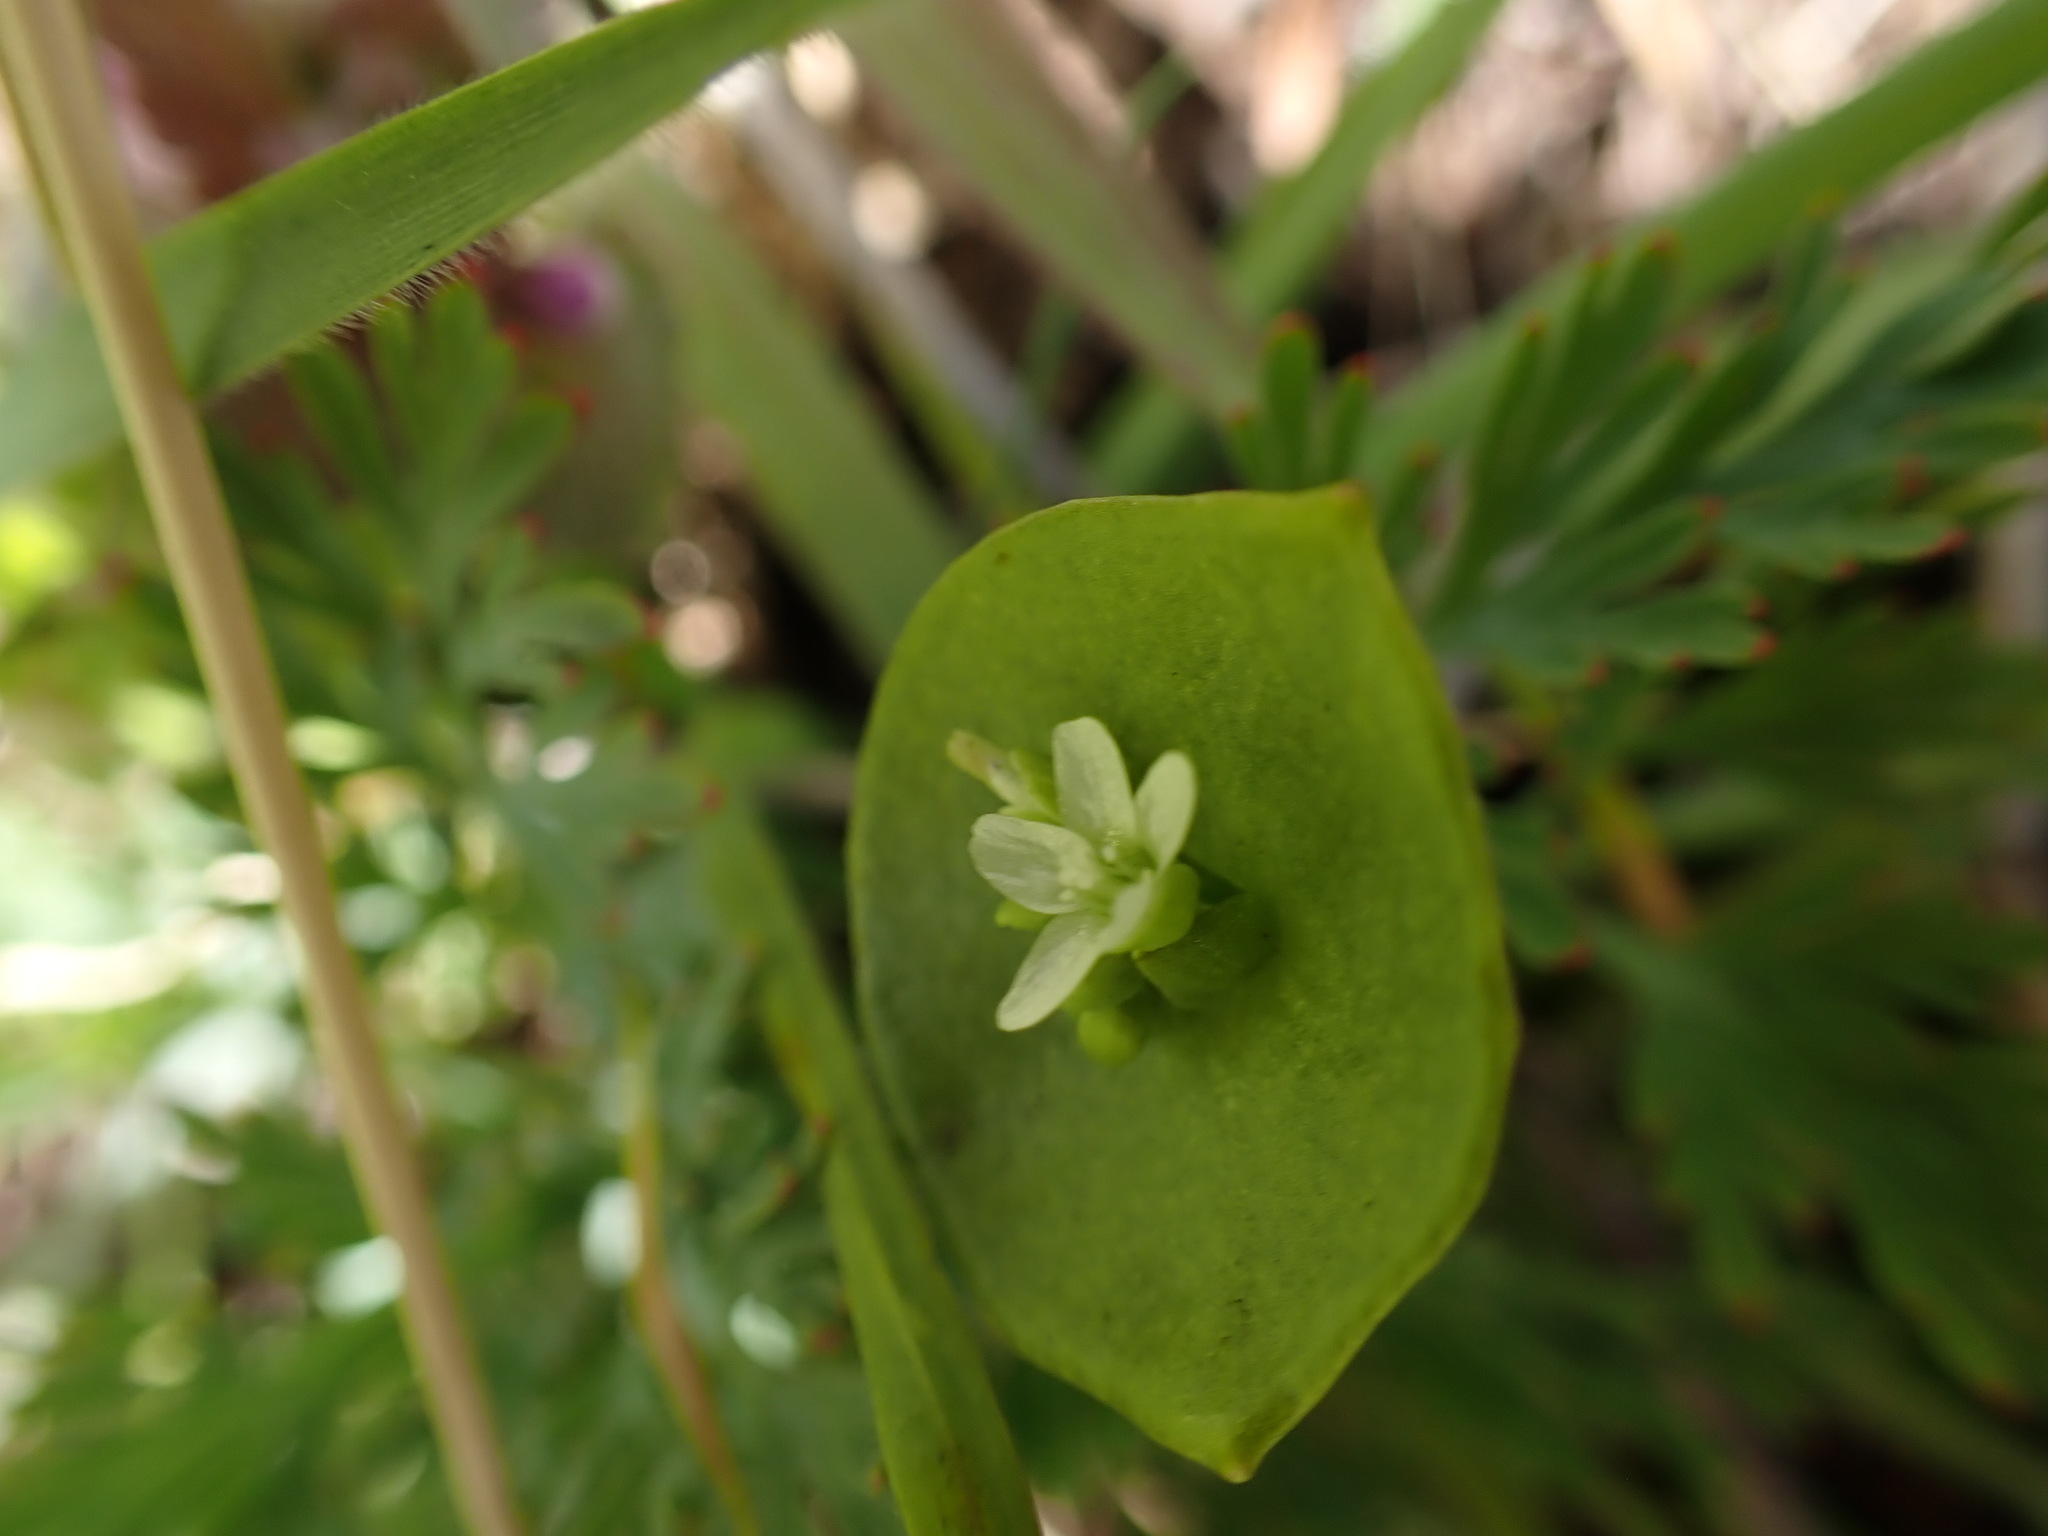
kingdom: Plantae
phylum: Tracheophyta
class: Magnoliopsida
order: Caryophyllales
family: Montiaceae
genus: Claytonia
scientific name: Claytonia perfoliata
